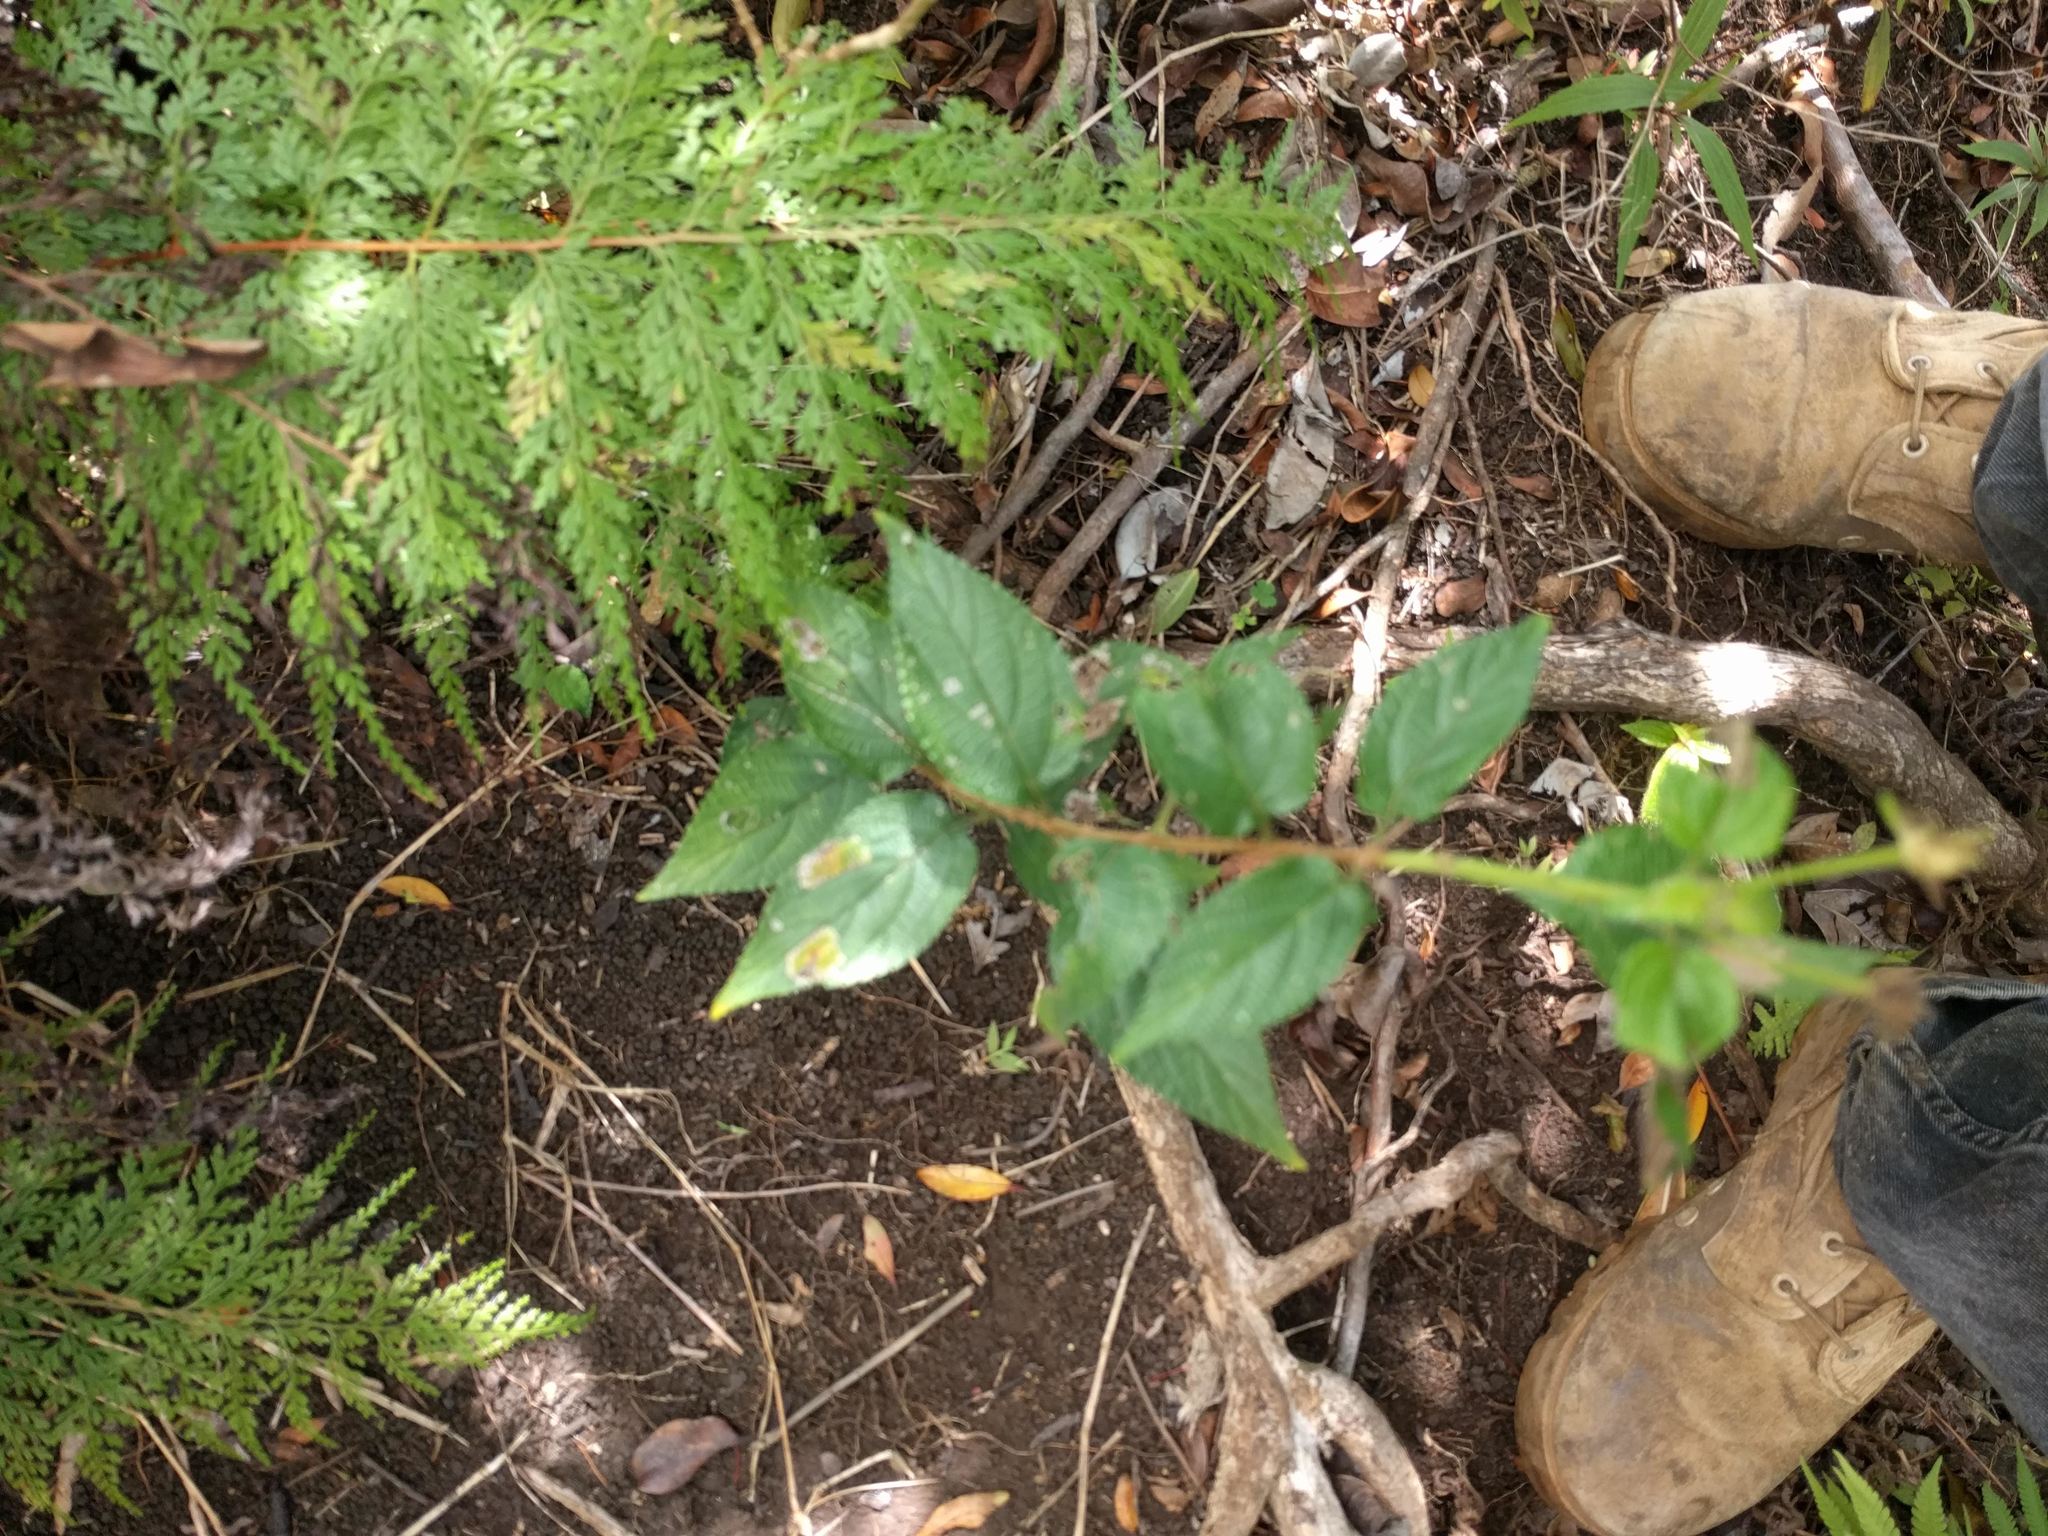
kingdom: Plantae
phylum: Tracheophyta
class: Polypodiopsida
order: Polypodiales
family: Lindsaeaceae
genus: Odontosoria
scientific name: Odontosoria chinensis
